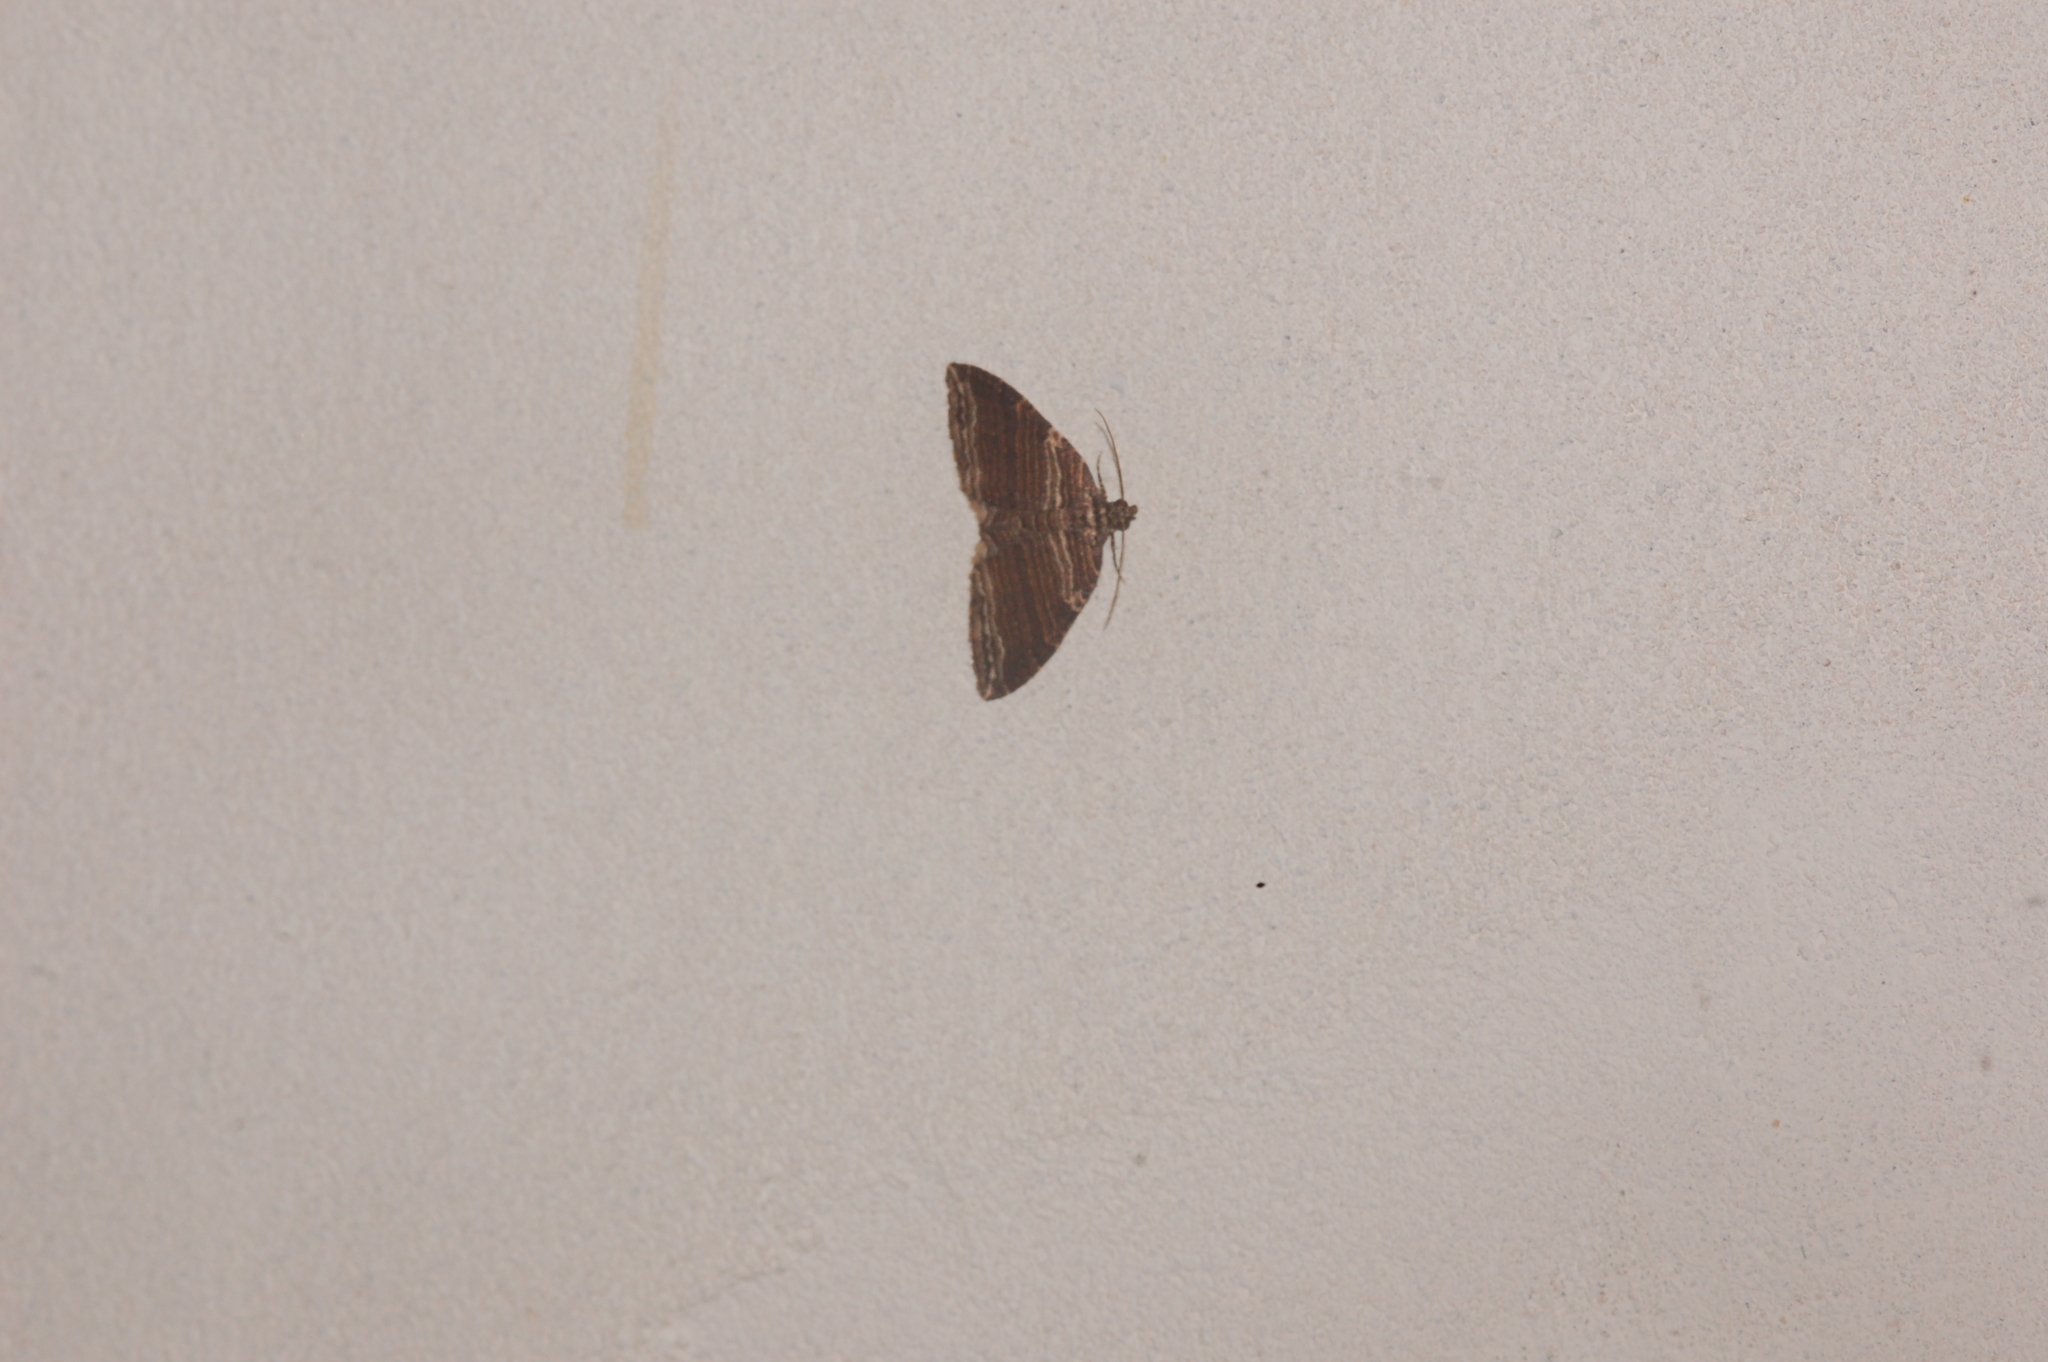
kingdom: Animalia
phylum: Arthropoda
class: Insecta
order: Lepidoptera
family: Geometridae
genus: Anticlea
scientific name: Anticlea multiferata
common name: Many-lined carpet
